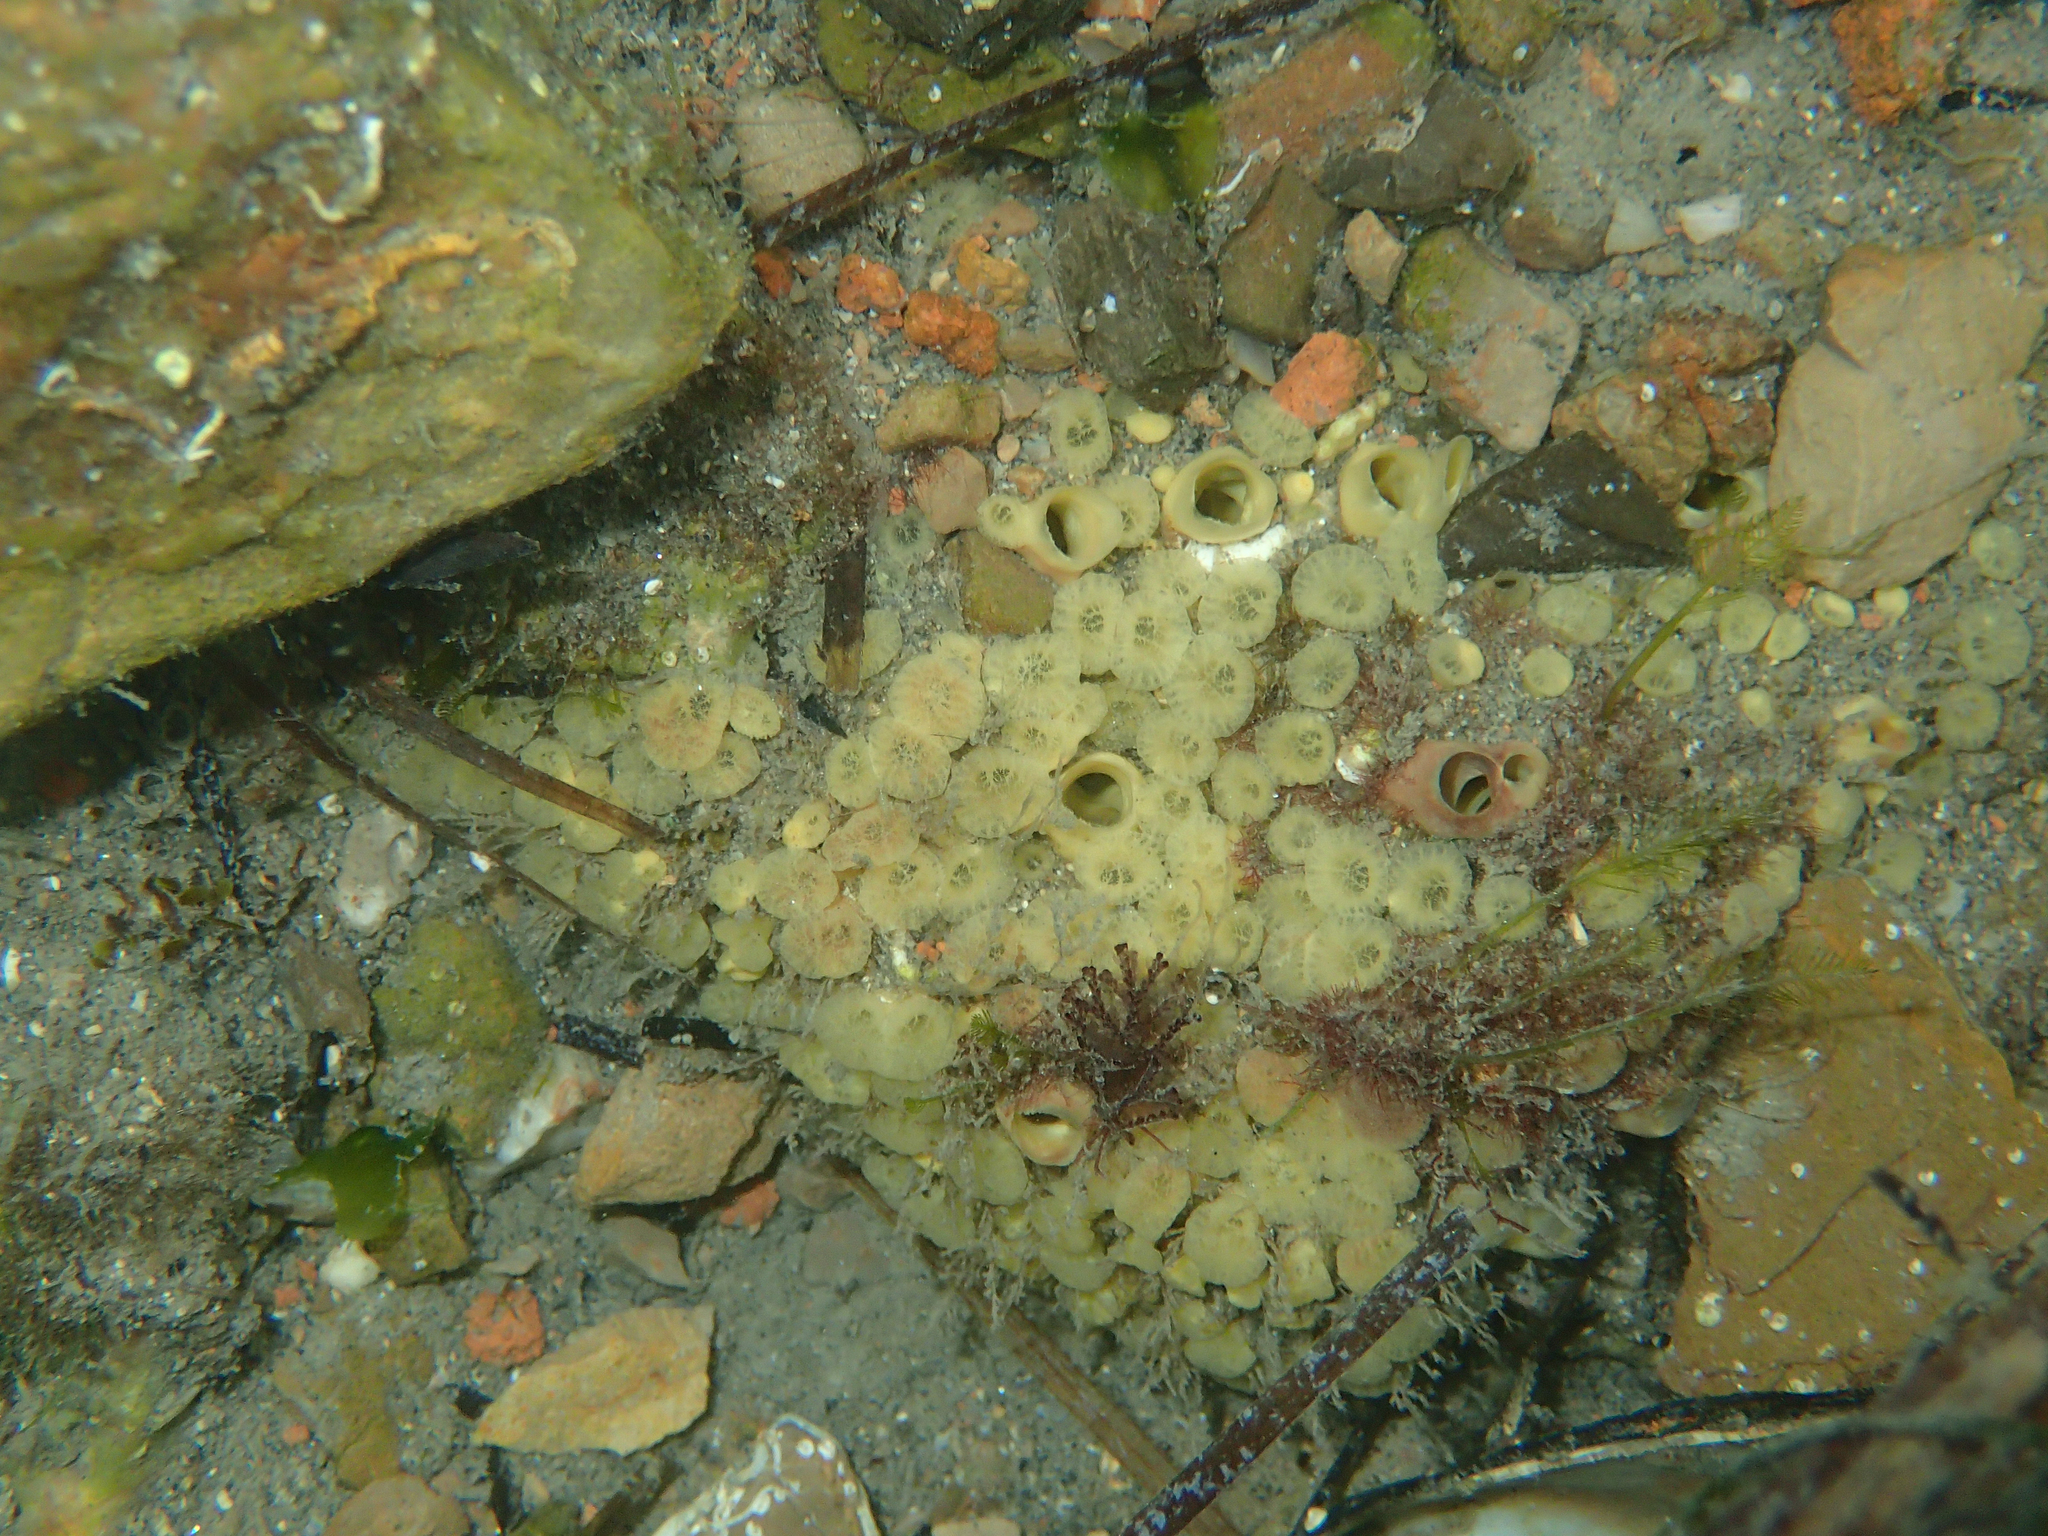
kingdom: Animalia
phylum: Porifera
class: Demospongiae
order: Clionaida
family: Clionaidae
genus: Cliona
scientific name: Cliona celata
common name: Boring sponge
